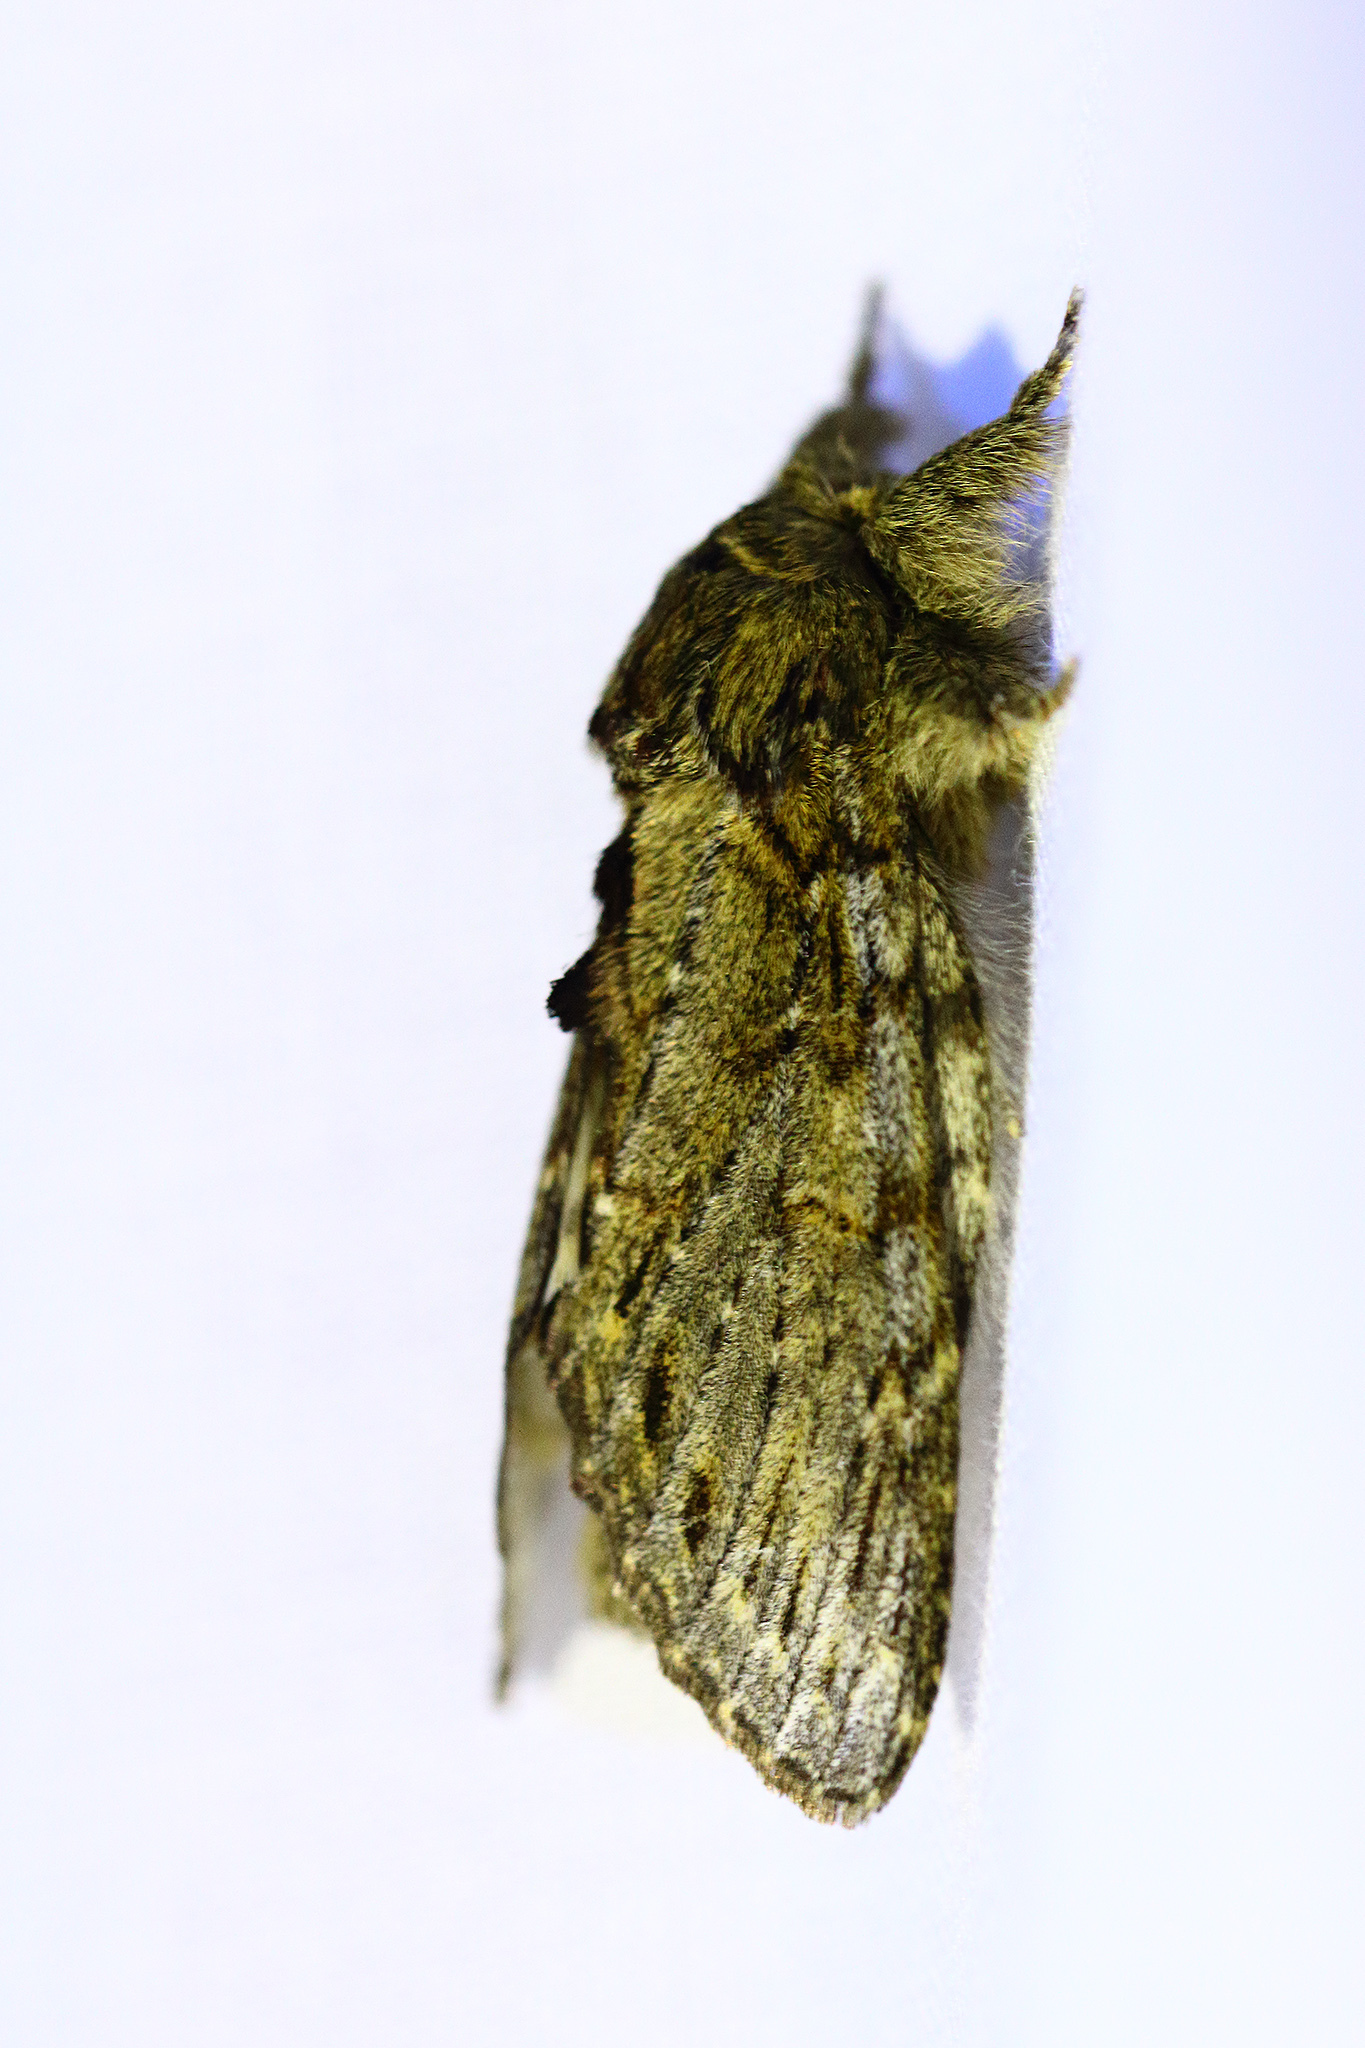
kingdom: Animalia
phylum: Arthropoda
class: Insecta
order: Lepidoptera
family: Notodontidae
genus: Peridea
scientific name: Peridea anceps
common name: Great prominent
